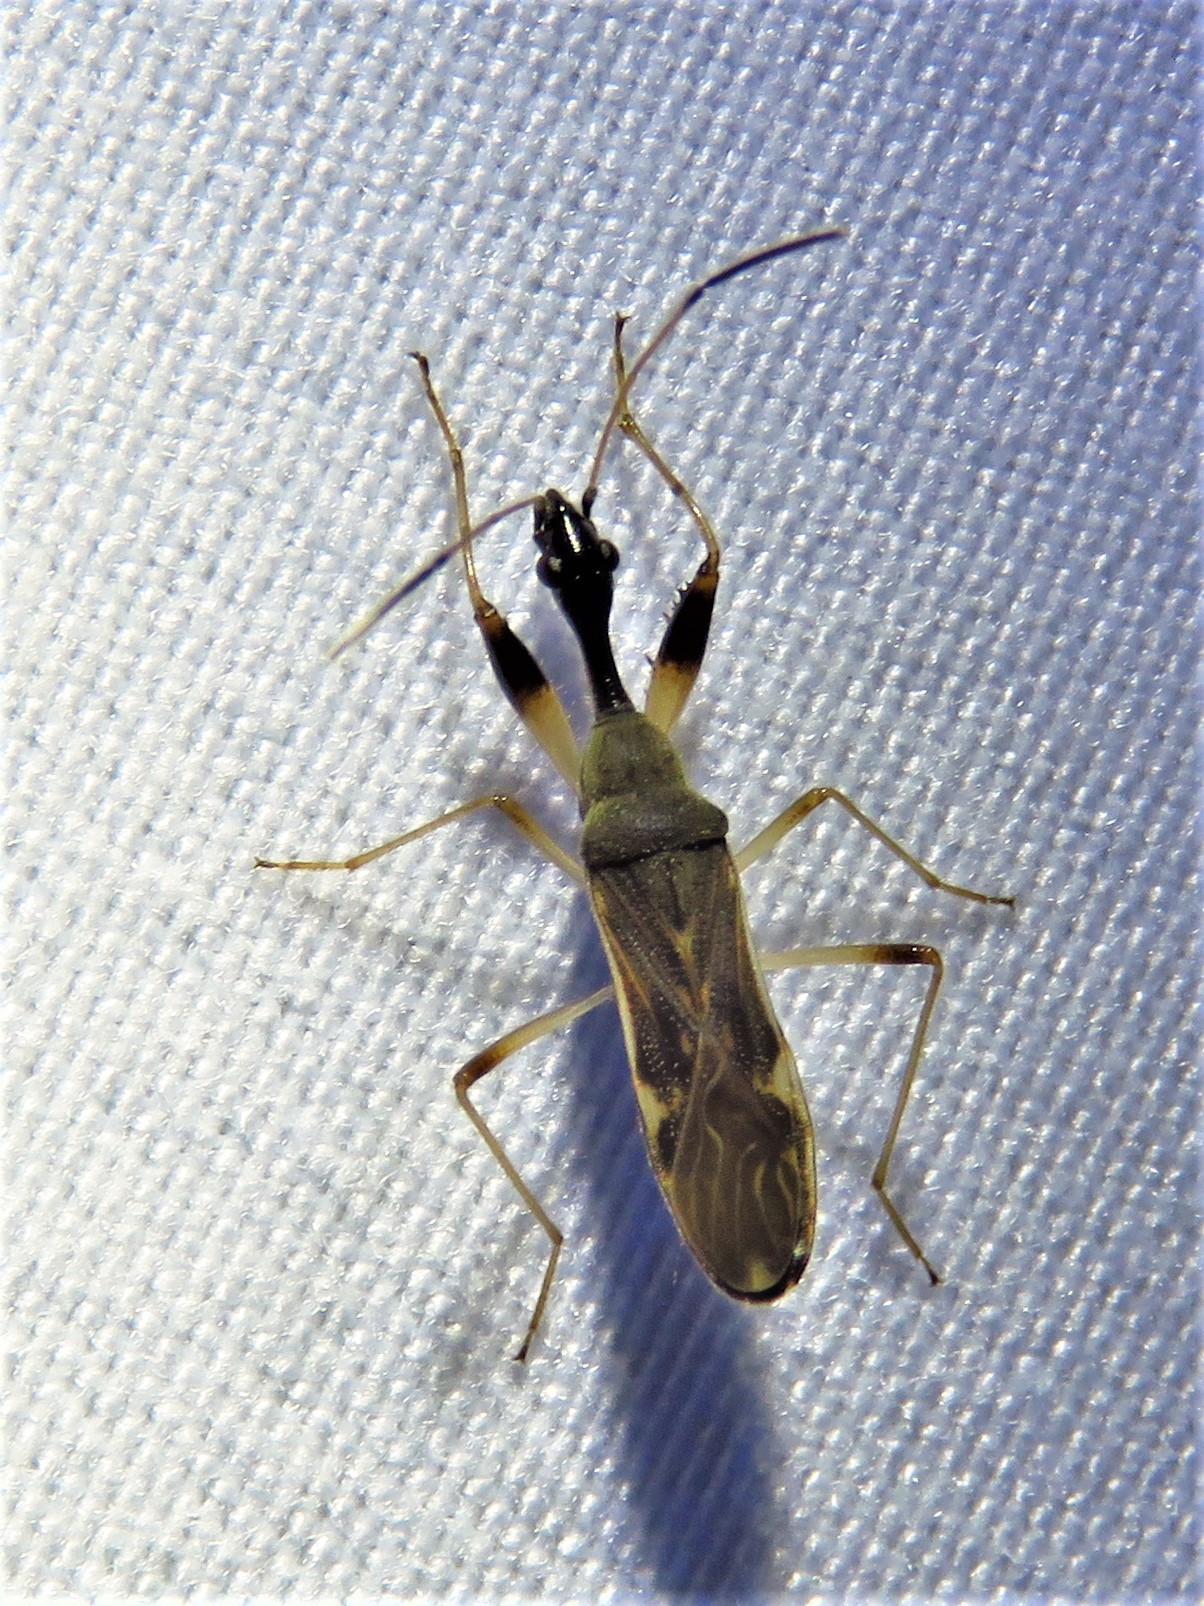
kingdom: Animalia
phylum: Arthropoda
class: Insecta
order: Hemiptera
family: Rhyparochromidae
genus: Myodocha
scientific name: Myodocha serripes
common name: Long-necked seed bug
